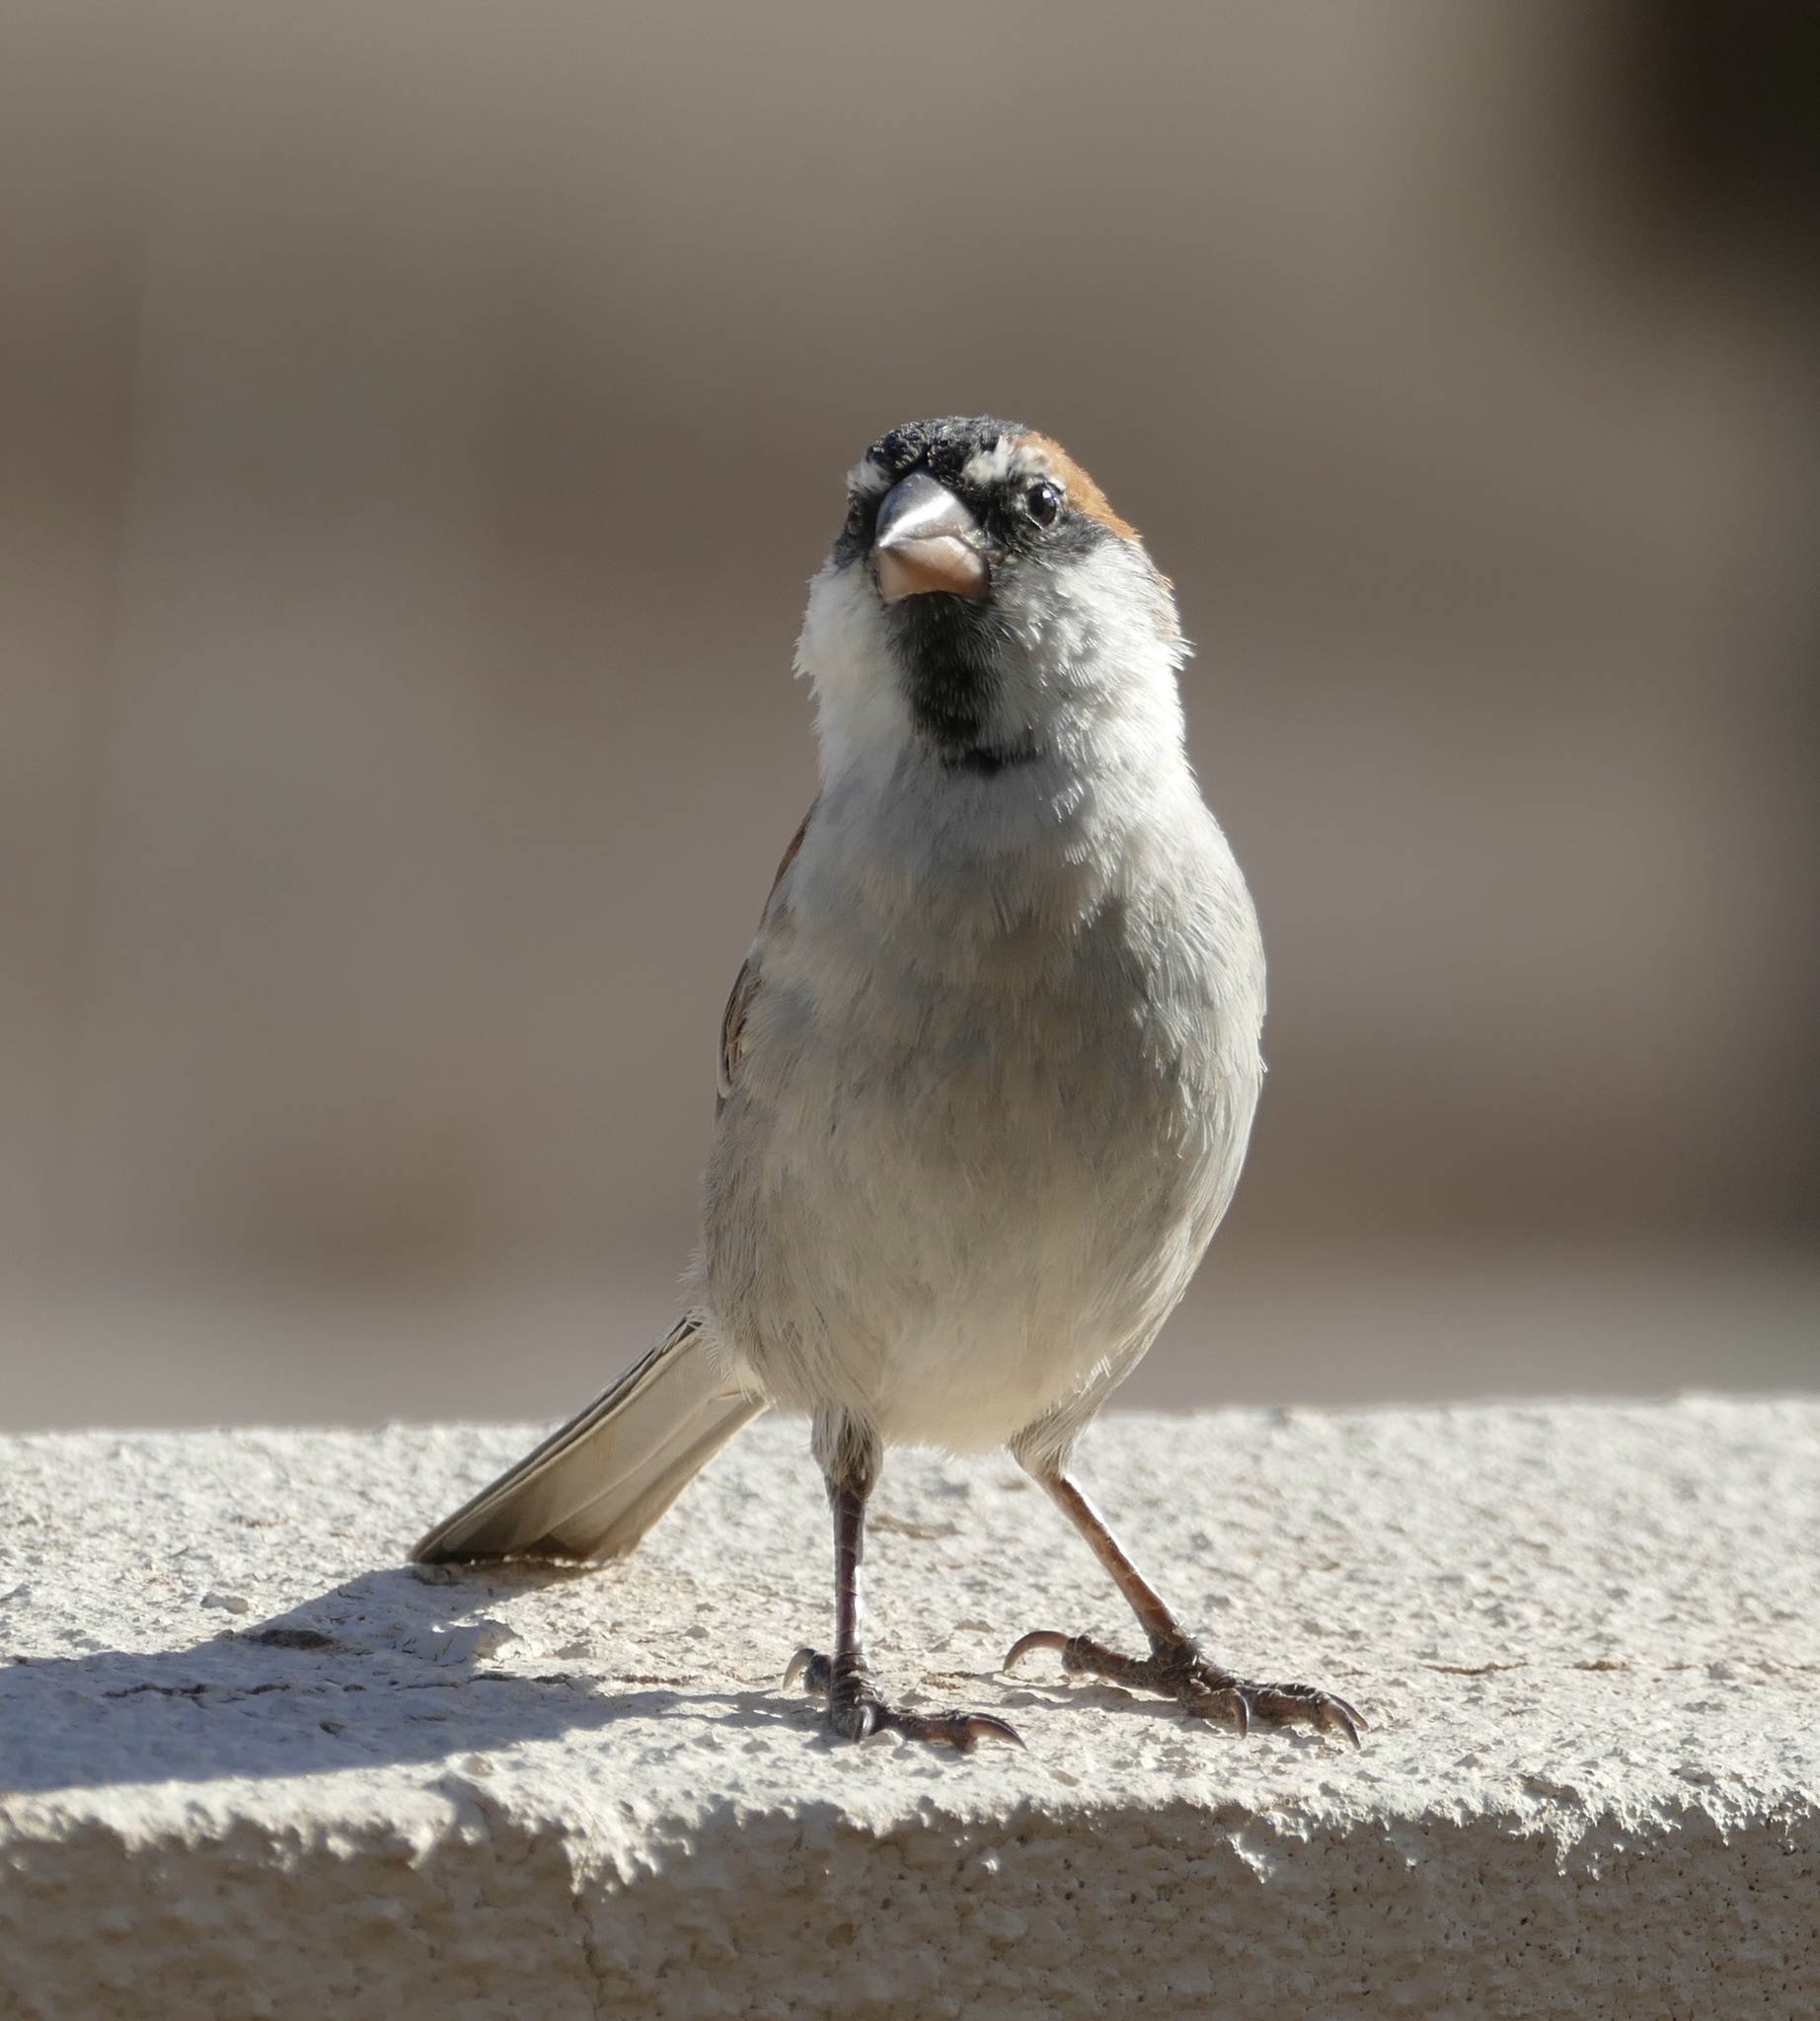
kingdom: Animalia
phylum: Chordata
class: Aves
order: Passeriformes
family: Passeridae
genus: Passer
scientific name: Passer iagoensis
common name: Iago sparrow
